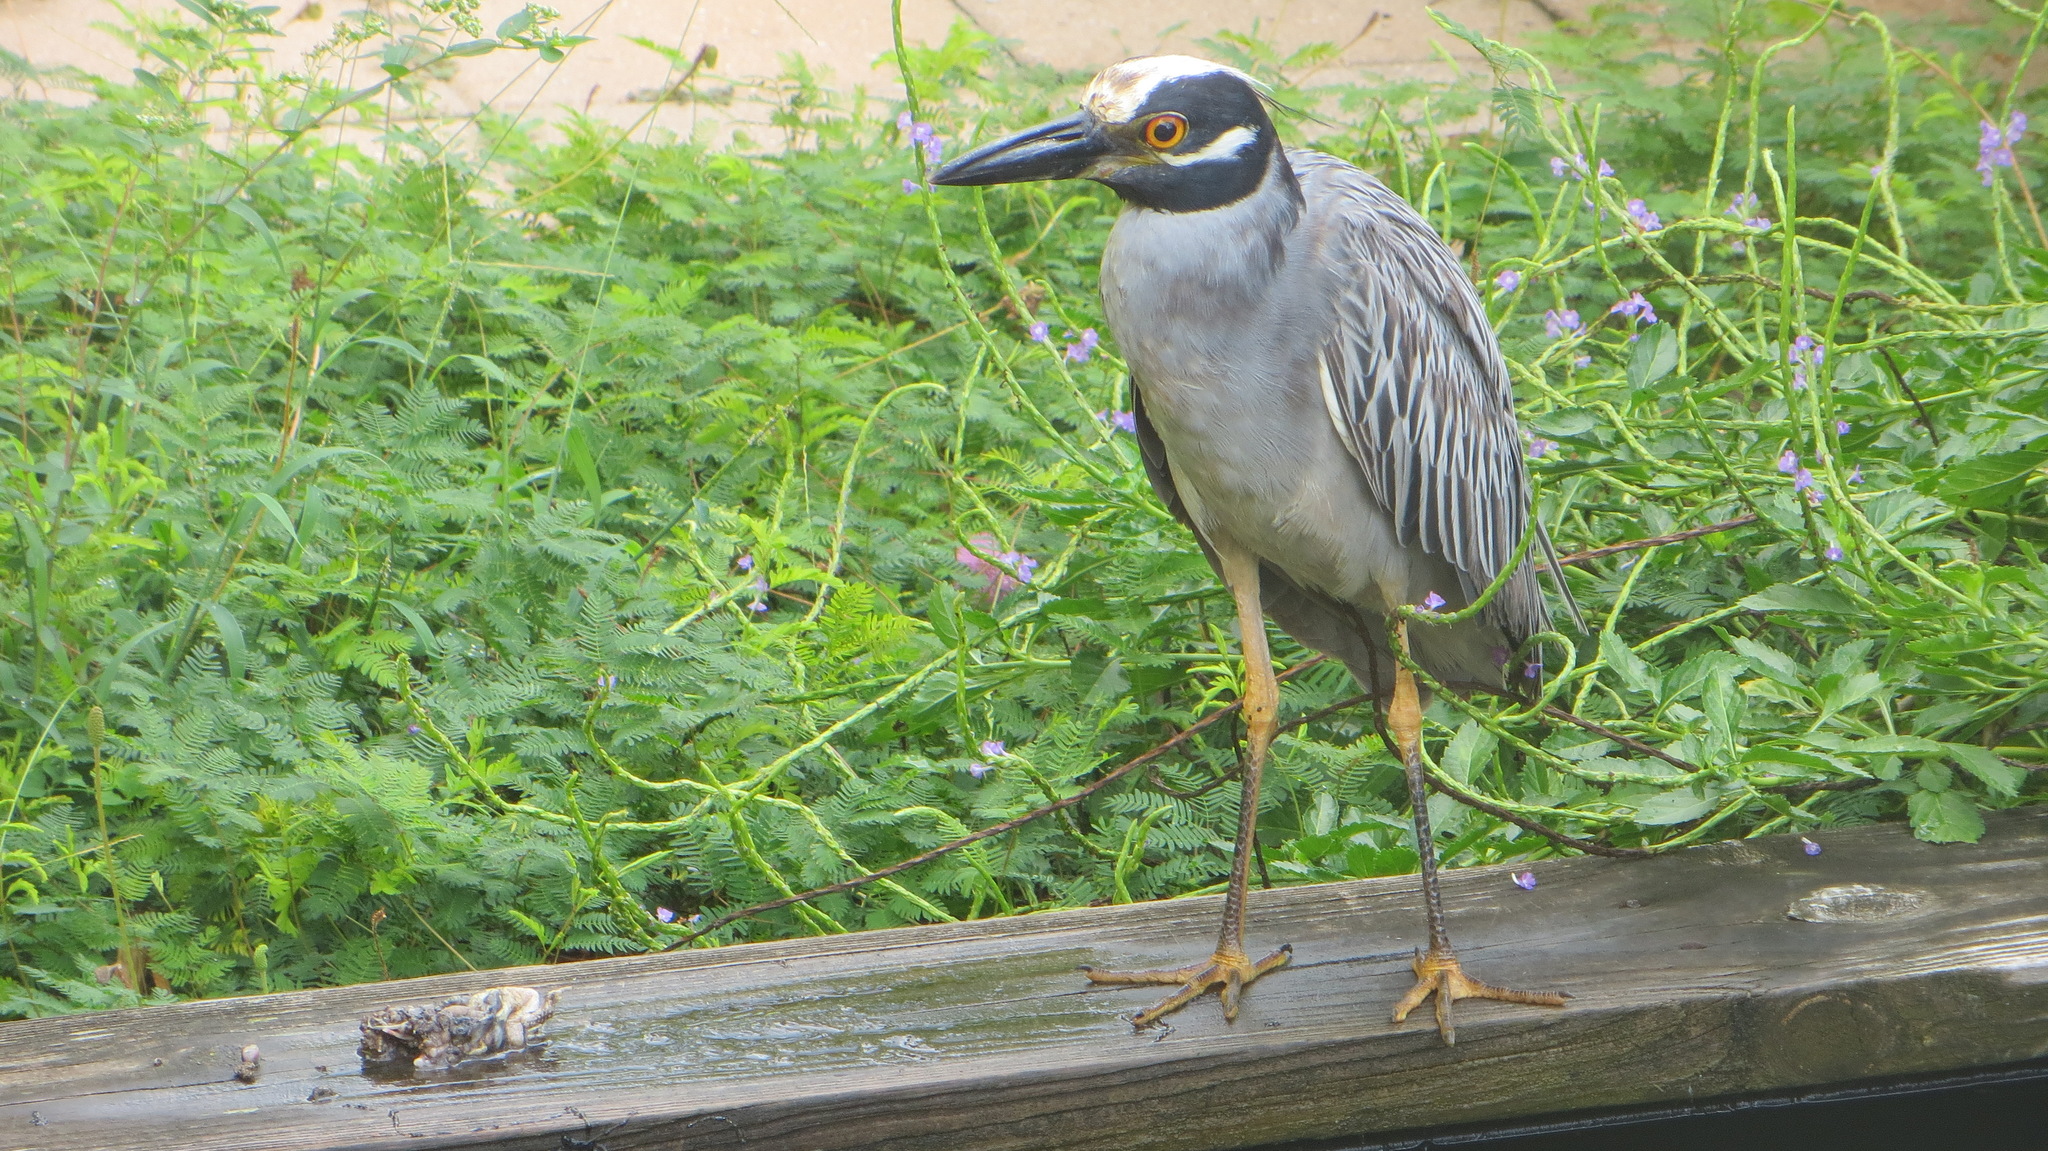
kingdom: Animalia
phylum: Chordata
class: Aves
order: Pelecaniformes
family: Ardeidae
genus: Nyctanassa
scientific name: Nyctanassa violacea
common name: Yellow-crowned night heron
